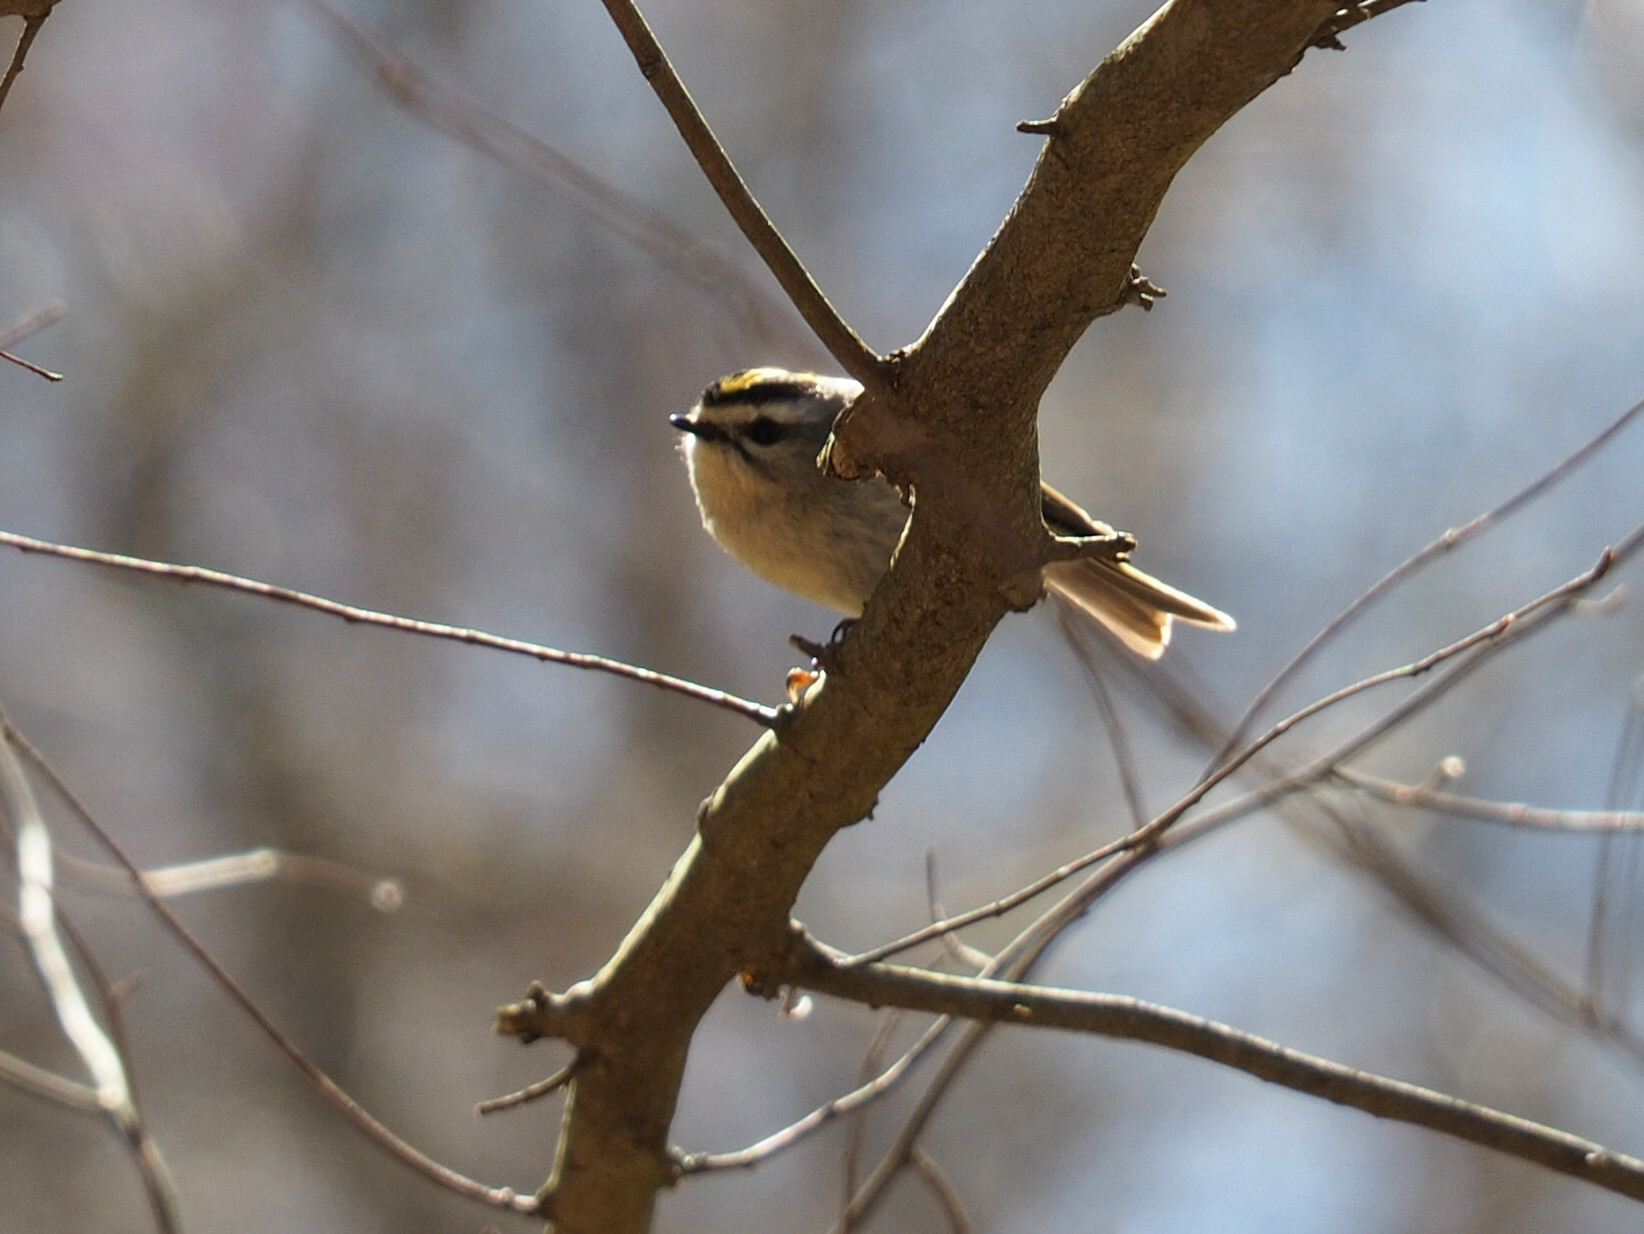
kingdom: Animalia
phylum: Chordata
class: Aves
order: Passeriformes
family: Regulidae
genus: Regulus
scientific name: Regulus satrapa
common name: Golden-crowned kinglet
